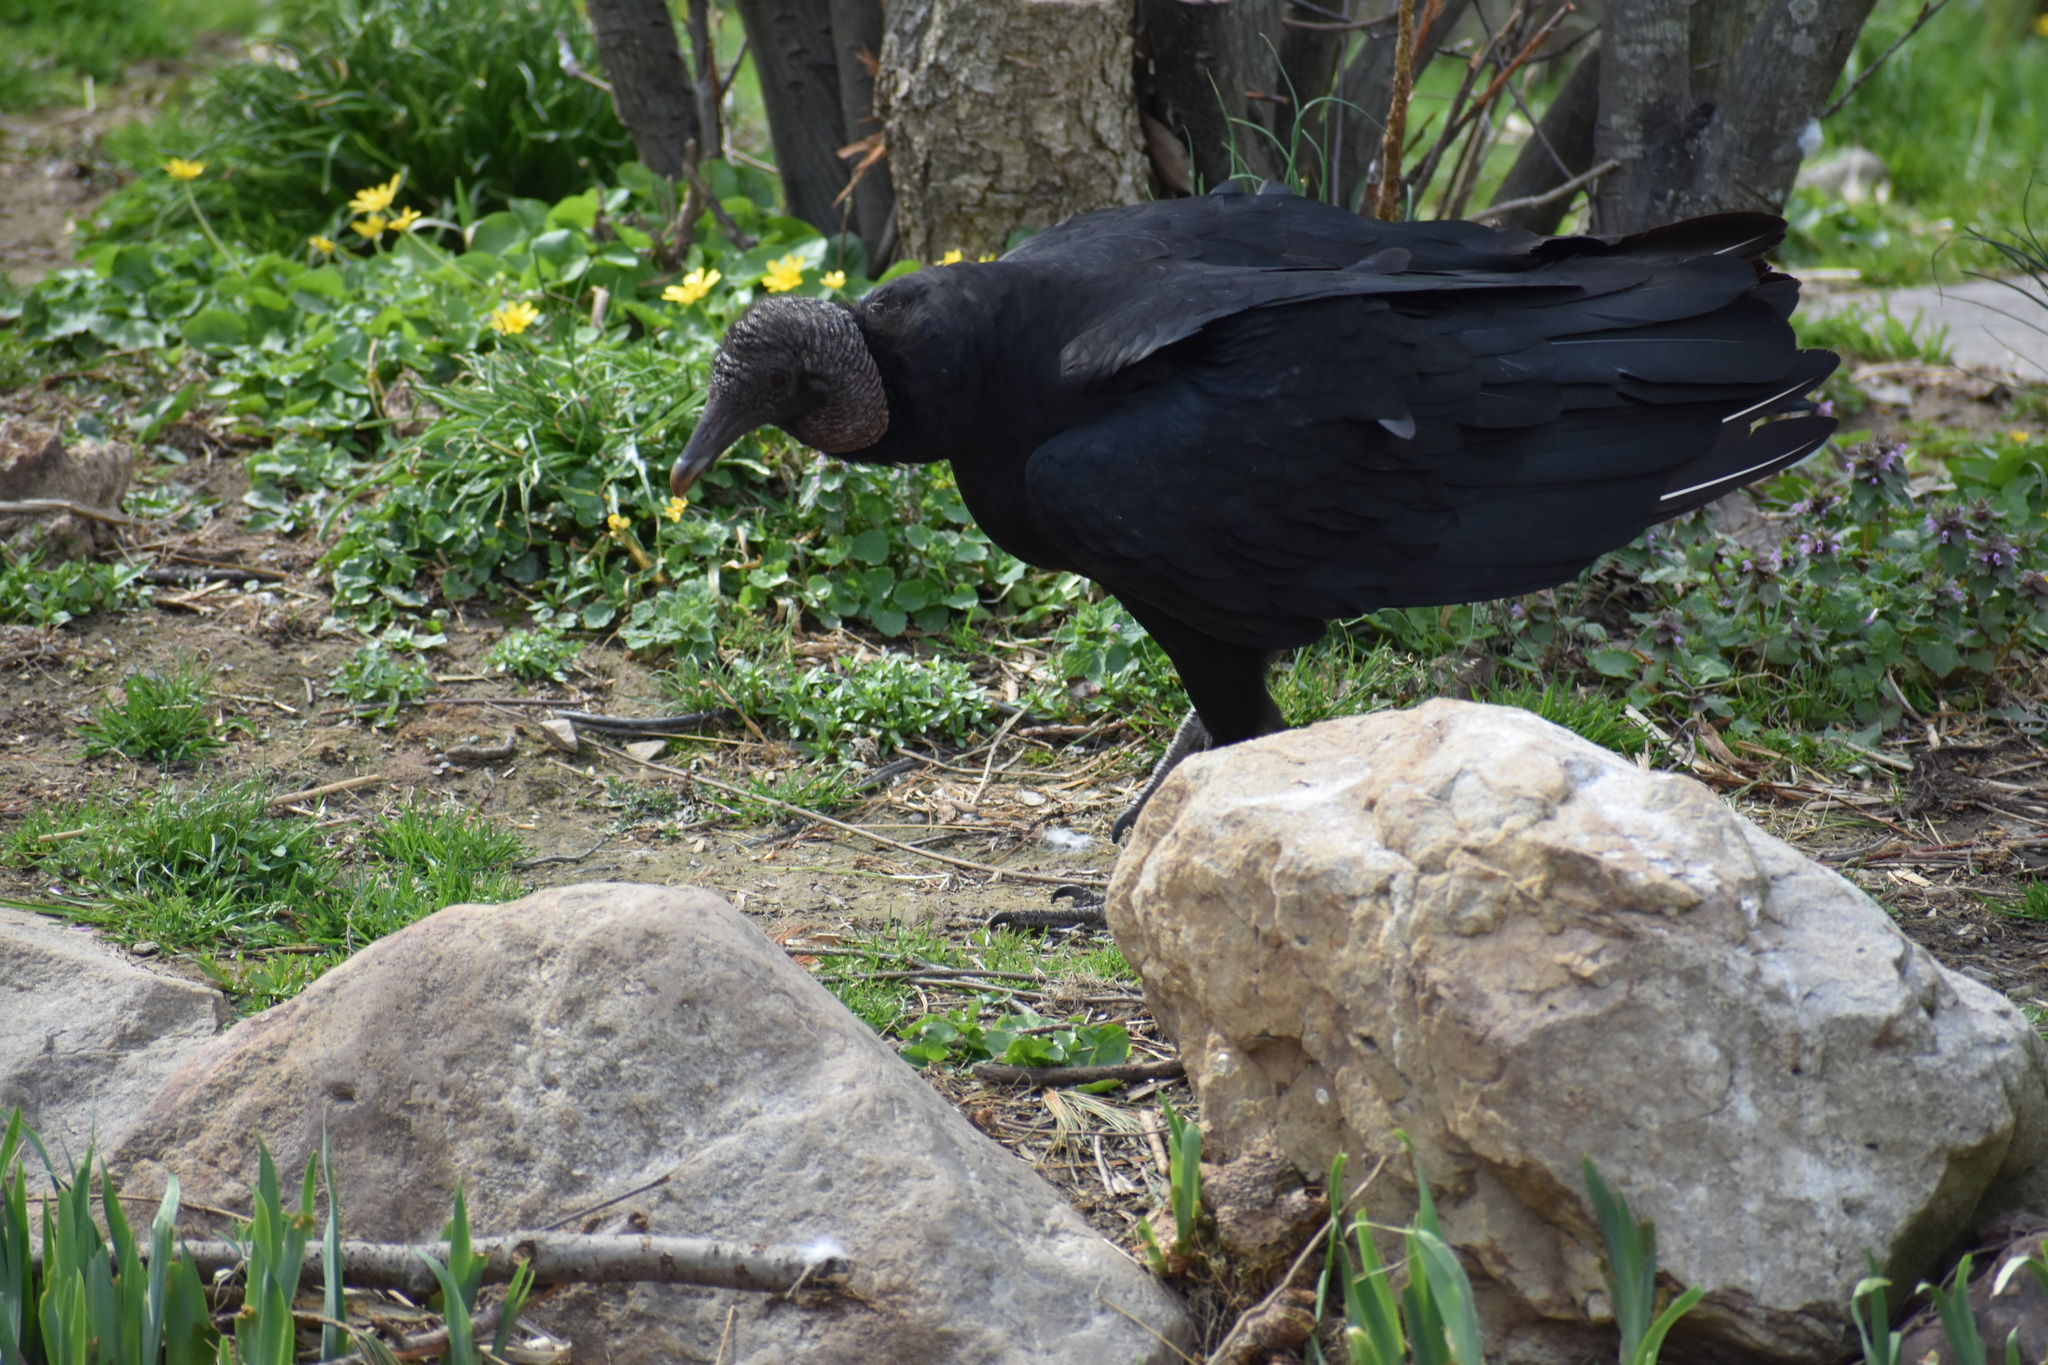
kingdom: Animalia
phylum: Chordata
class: Aves
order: Accipitriformes
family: Cathartidae
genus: Coragyps
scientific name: Coragyps atratus
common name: Black vulture
